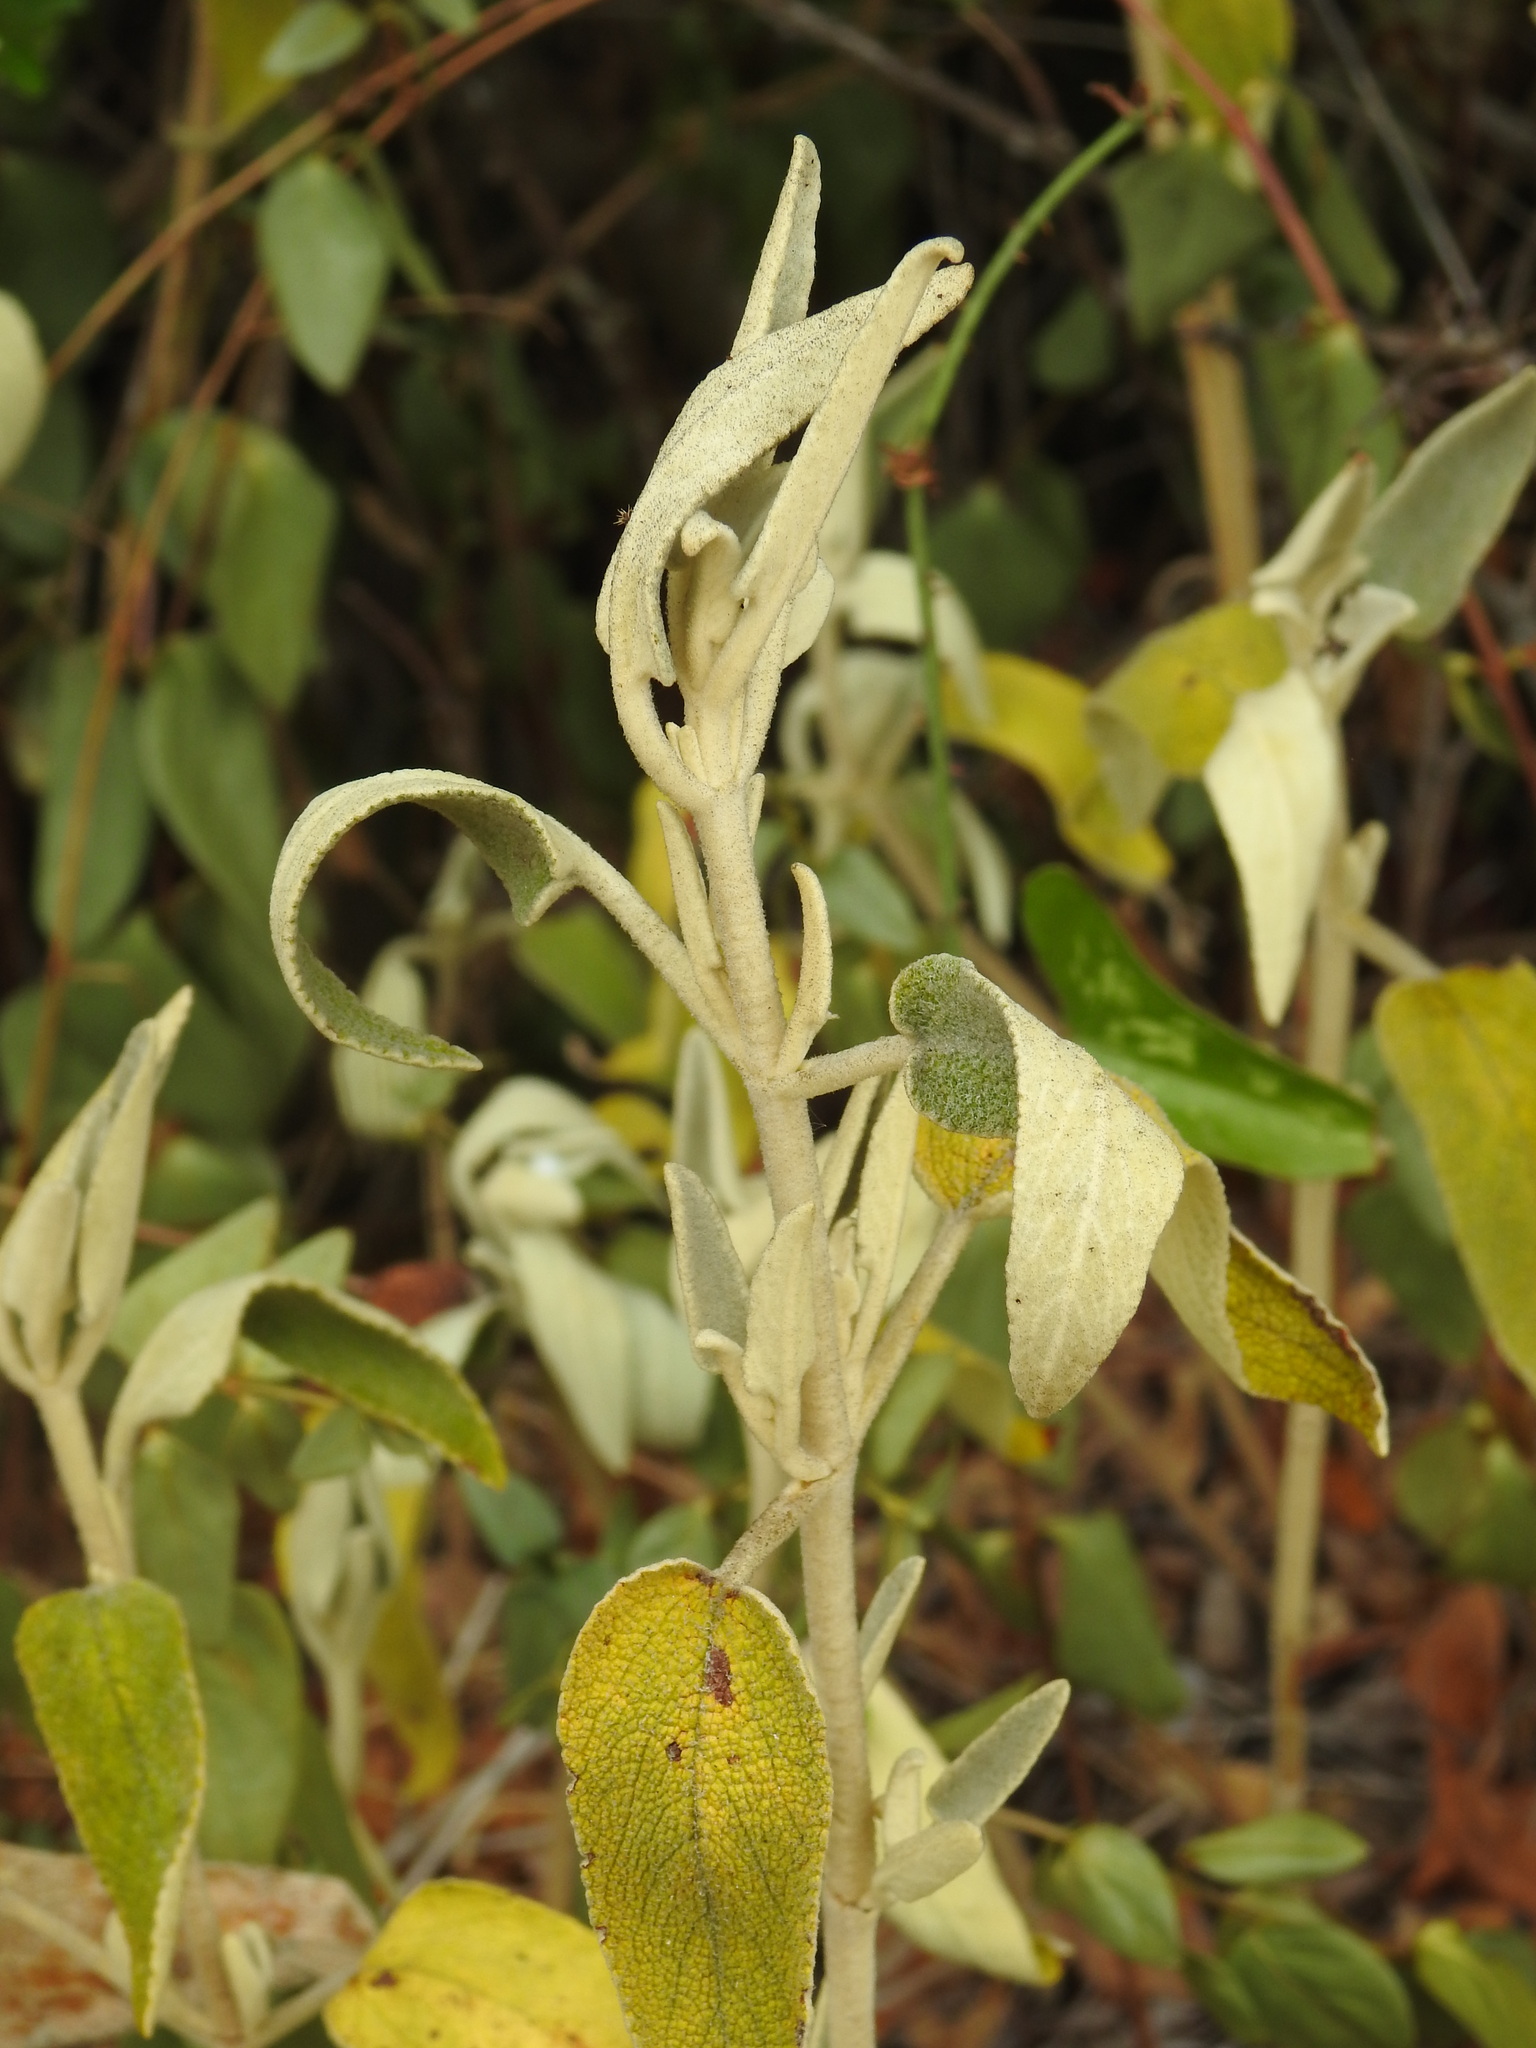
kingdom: Plantae
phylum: Tracheophyta
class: Magnoliopsida
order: Lamiales
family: Lamiaceae
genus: Phlomis
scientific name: Phlomis purpurea
